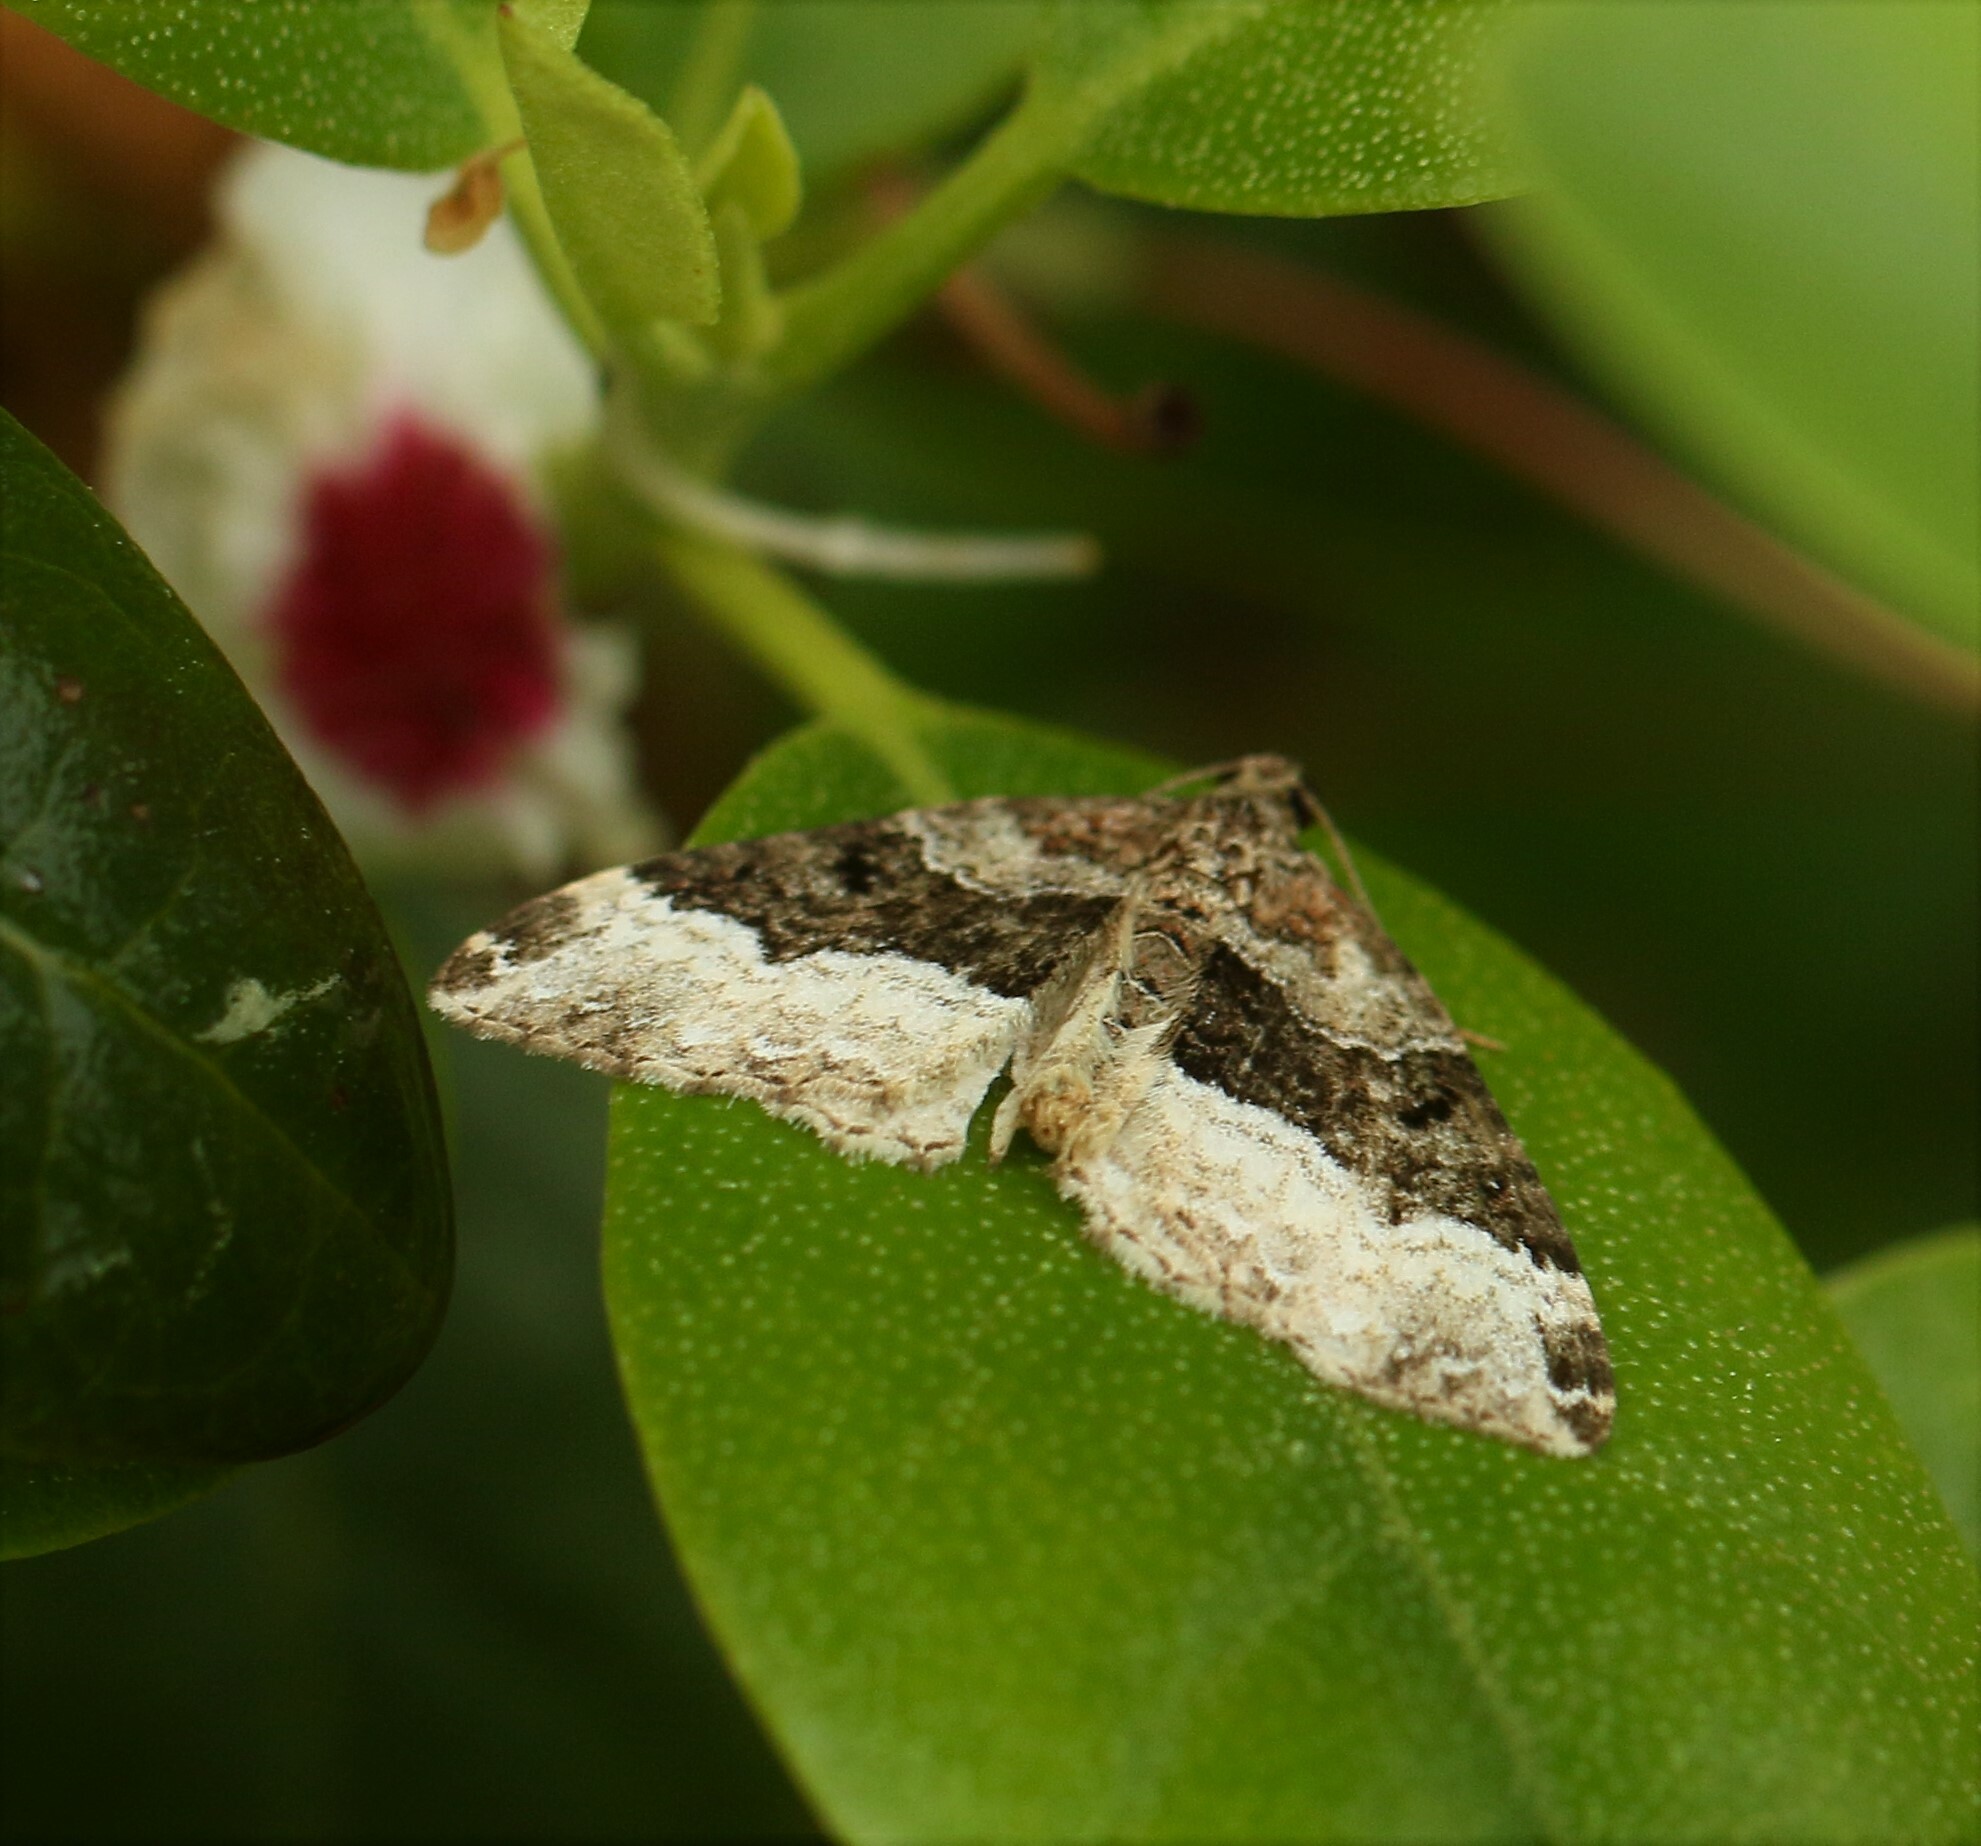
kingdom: Animalia
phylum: Arthropoda
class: Insecta
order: Lepidoptera
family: Geometridae
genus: Euphyia
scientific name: Euphyia intermediata
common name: Sharp-angled carpet
